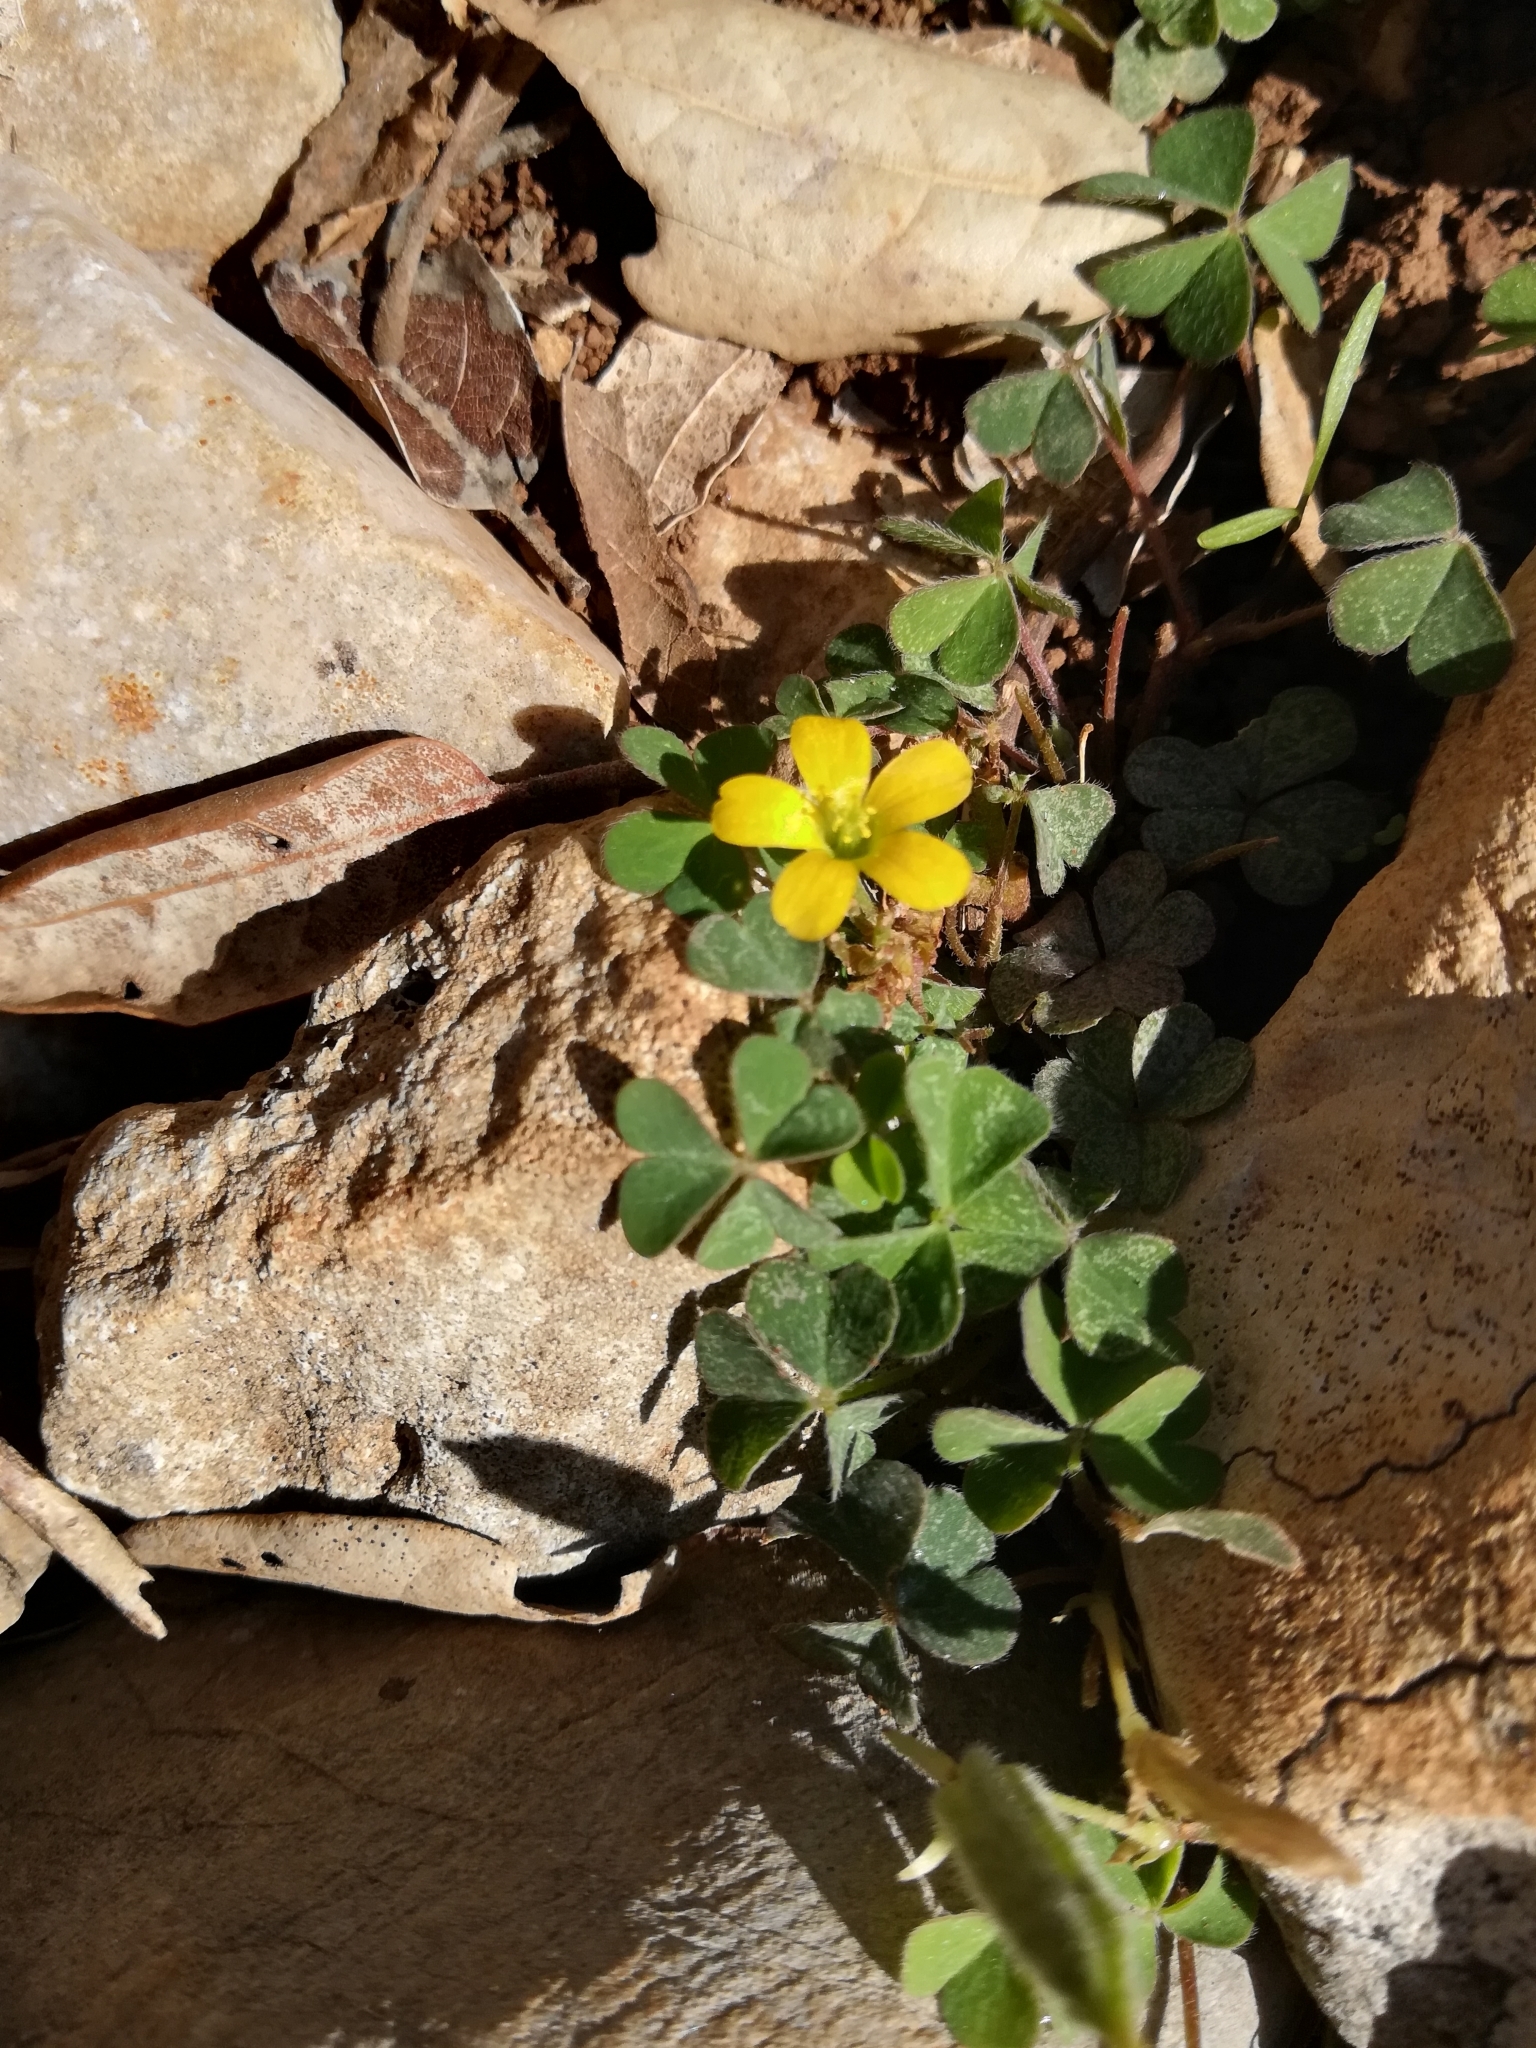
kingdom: Plantae
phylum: Tracheophyta
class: Magnoliopsida
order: Oxalidales
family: Oxalidaceae
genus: Oxalis
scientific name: Oxalis corniculata
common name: Procumbent yellow-sorrel
